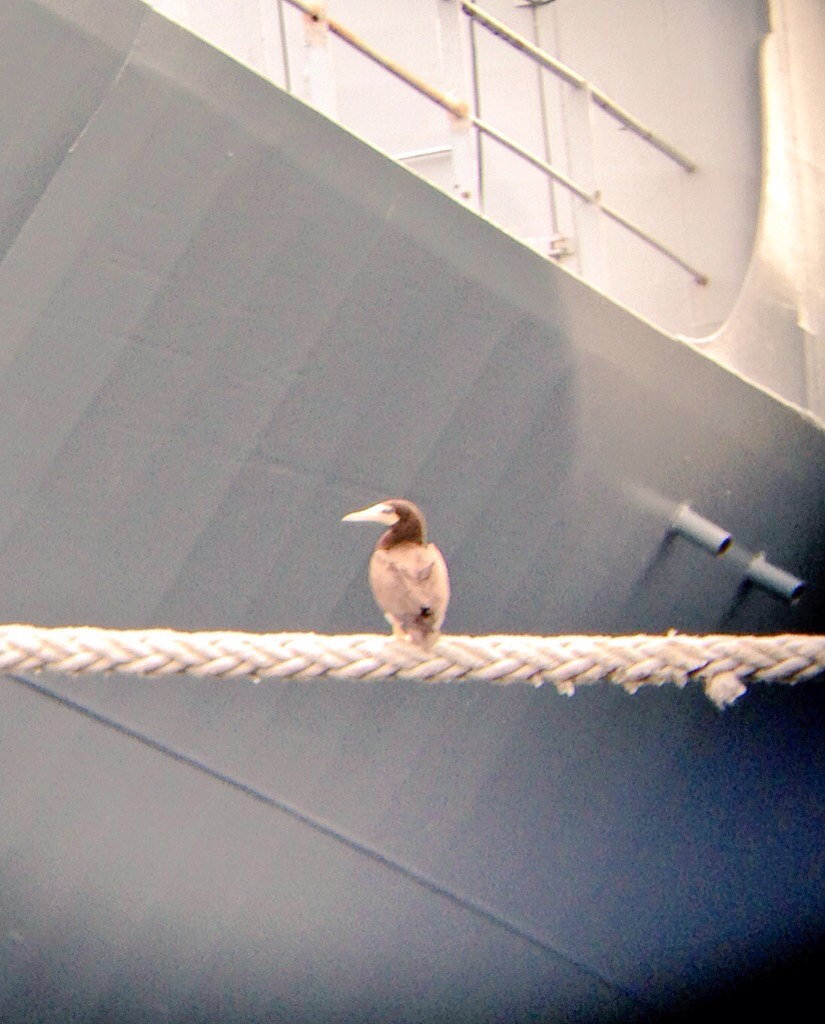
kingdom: Animalia
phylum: Chordata
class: Aves
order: Suliformes
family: Sulidae
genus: Sula
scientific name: Sula leucogaster
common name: Brown booby
